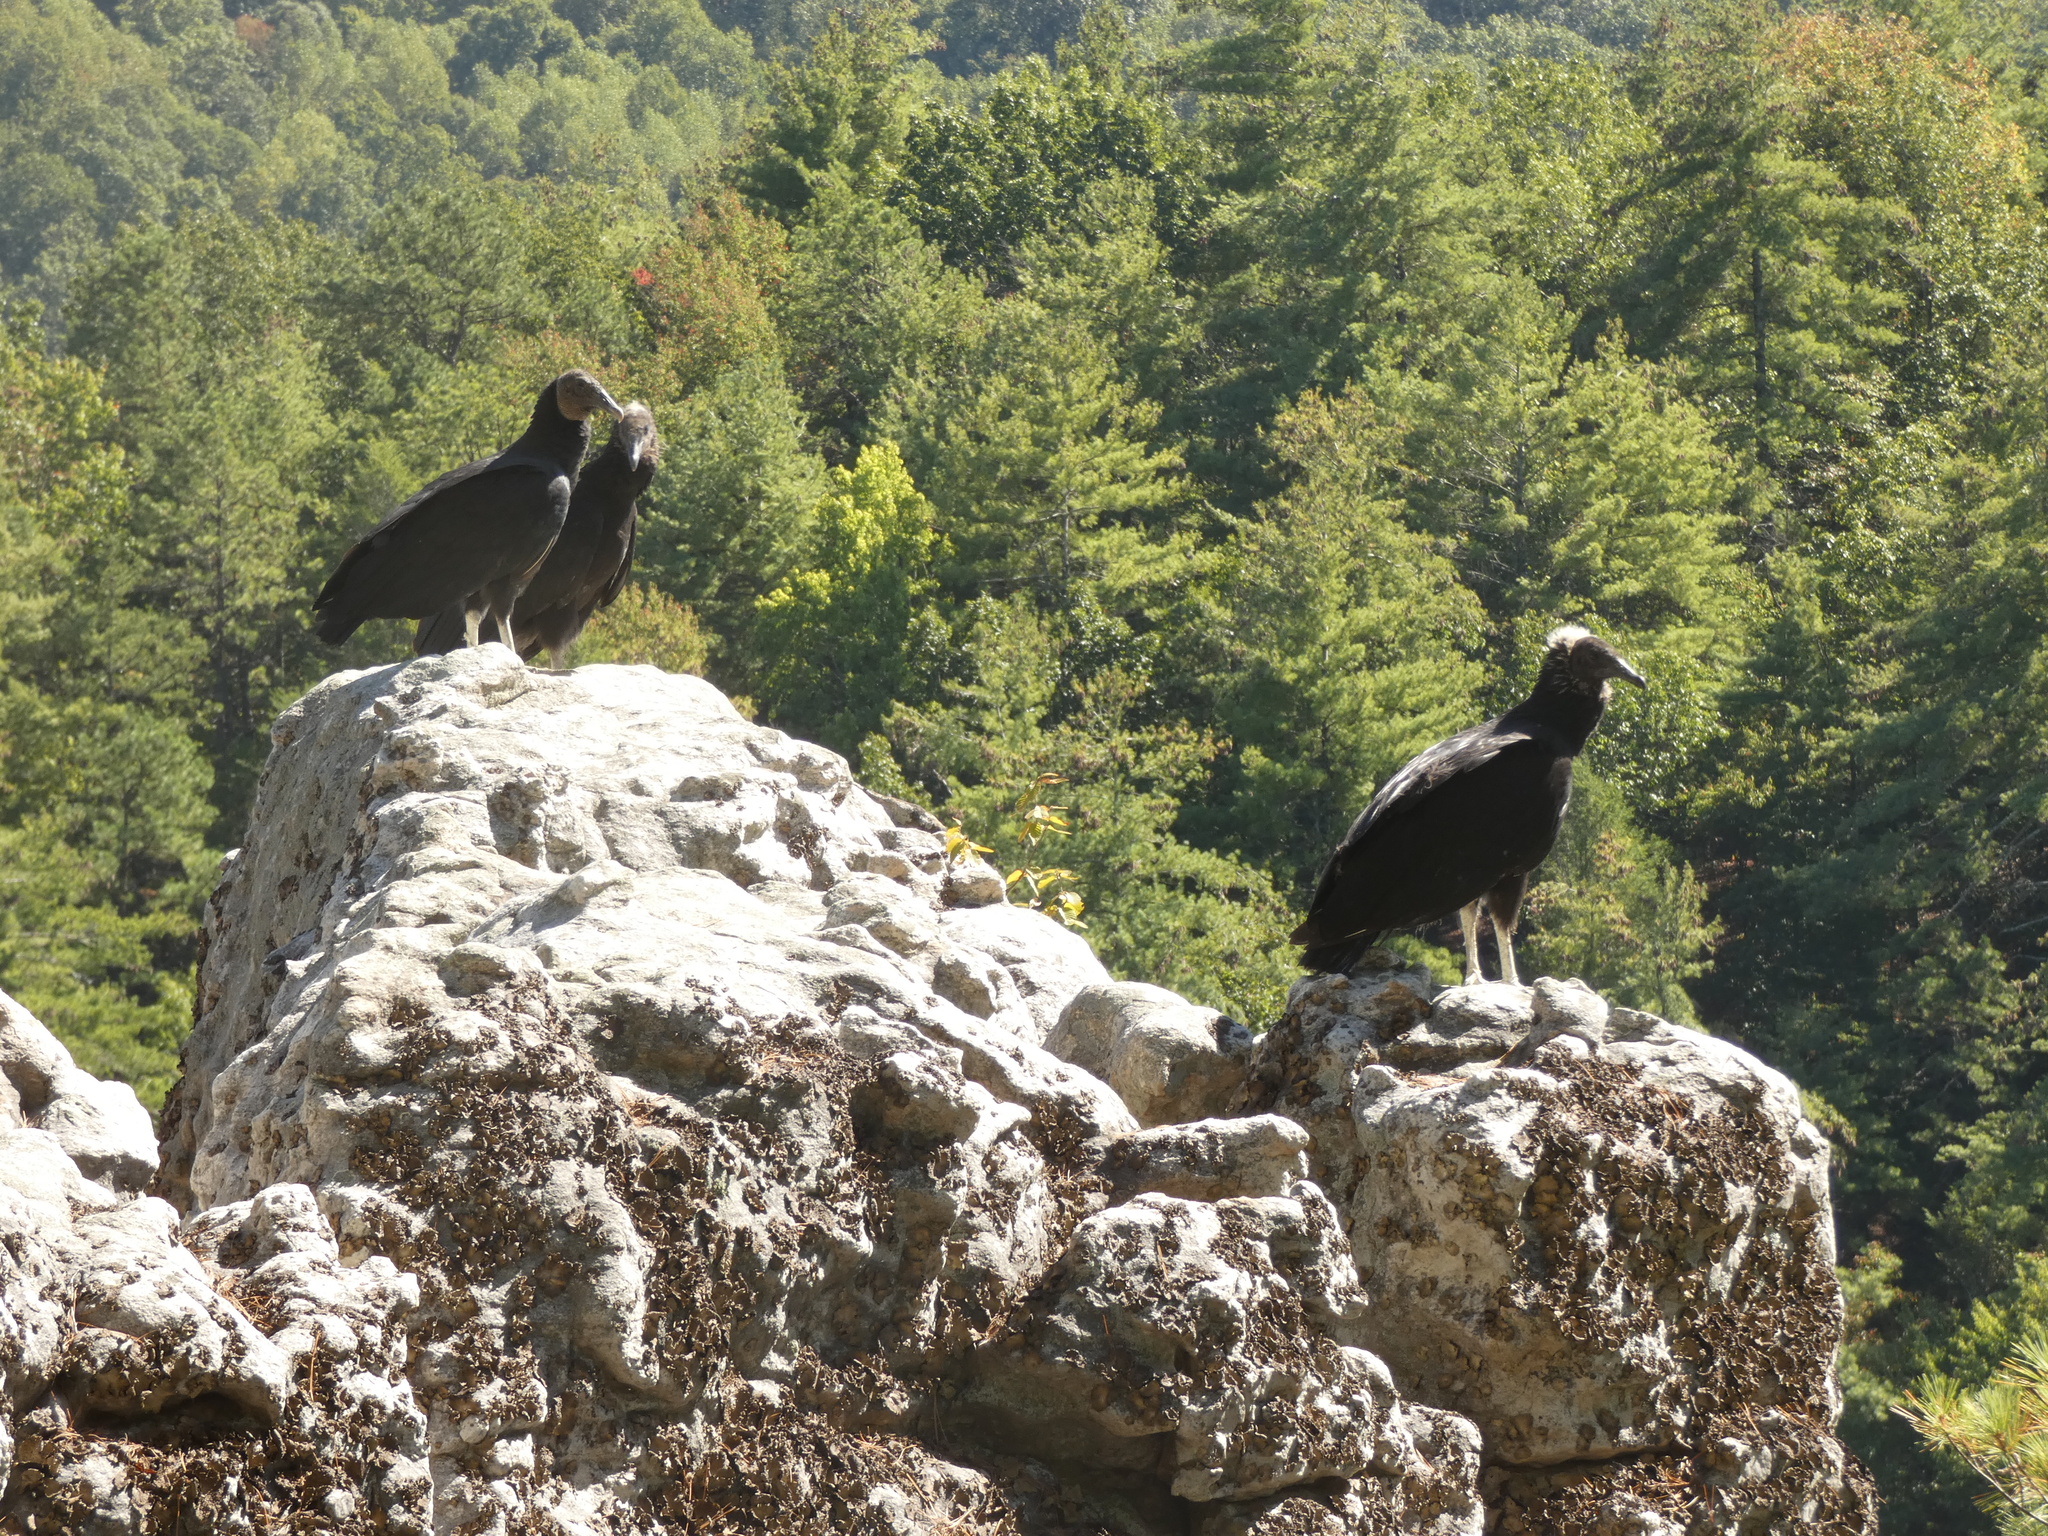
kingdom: Animalia
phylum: Chordata
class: Aves
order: Accipitriformes
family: Cathartidae
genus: Coragyps
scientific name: Coragyps atratus
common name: Black vulture
